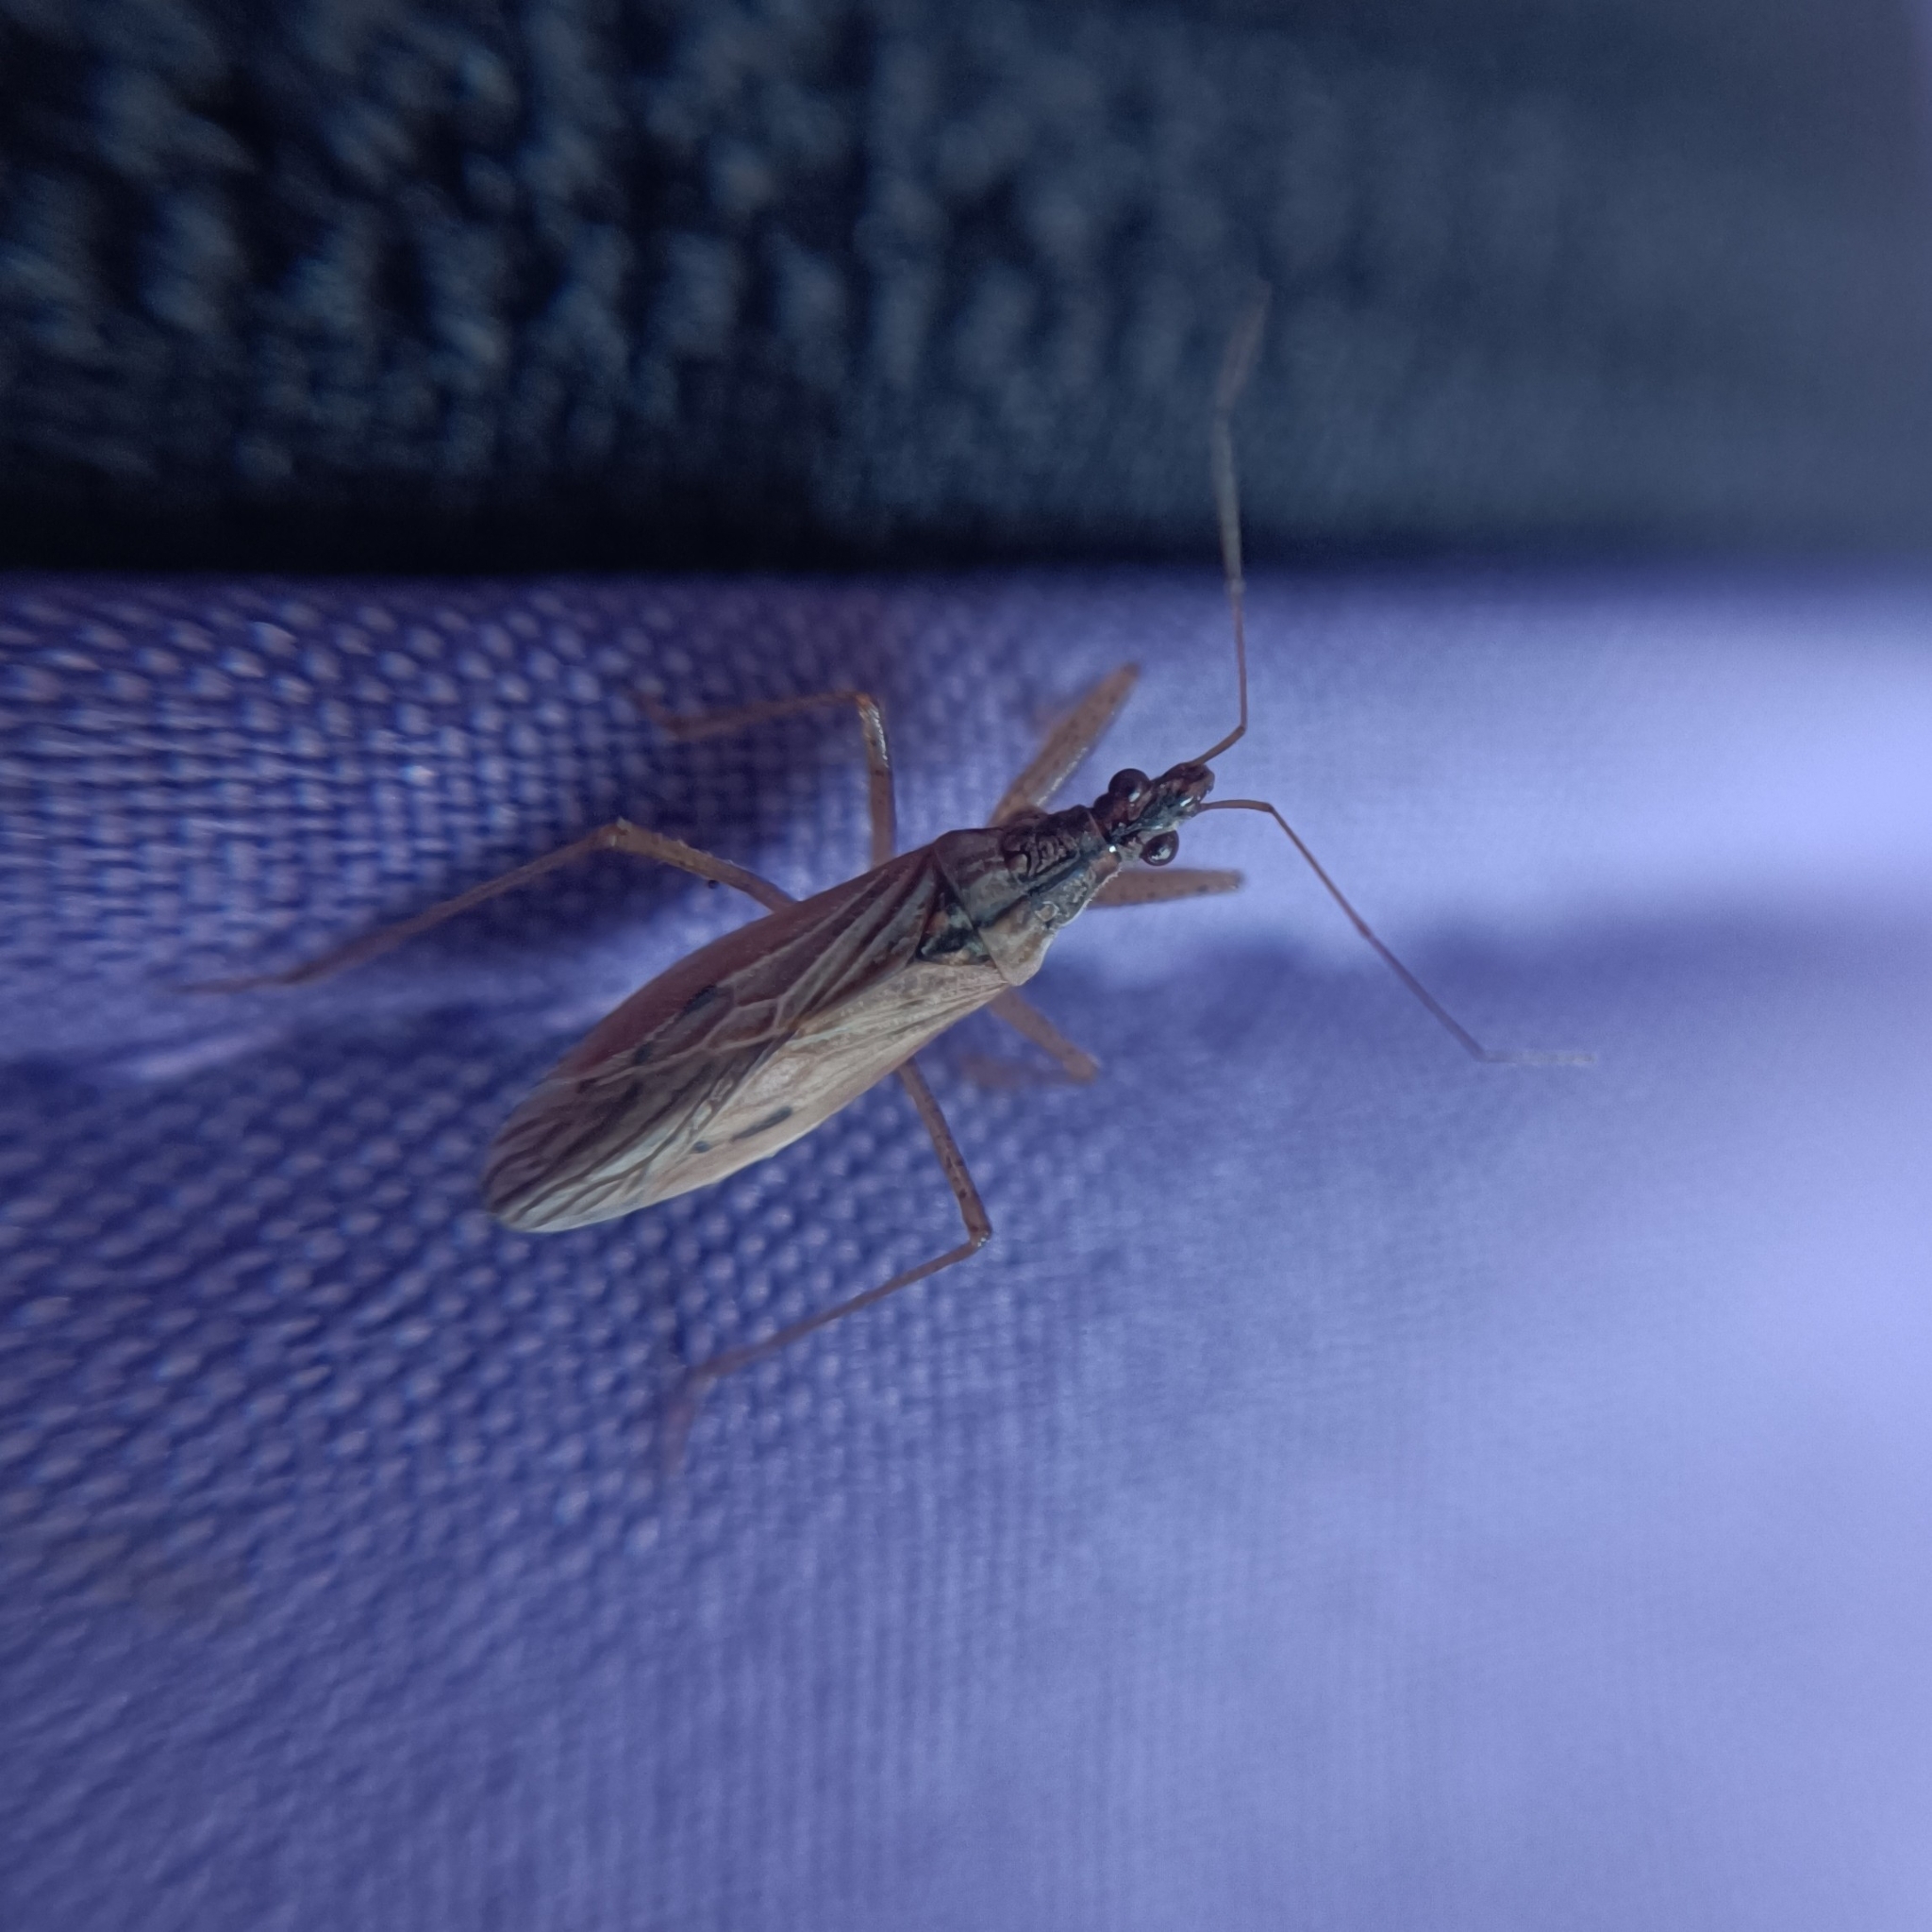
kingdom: Animalia
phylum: Arthropoda
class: Insecta
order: Hemiptera
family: Nabidae
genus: Nabis
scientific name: Nabis
